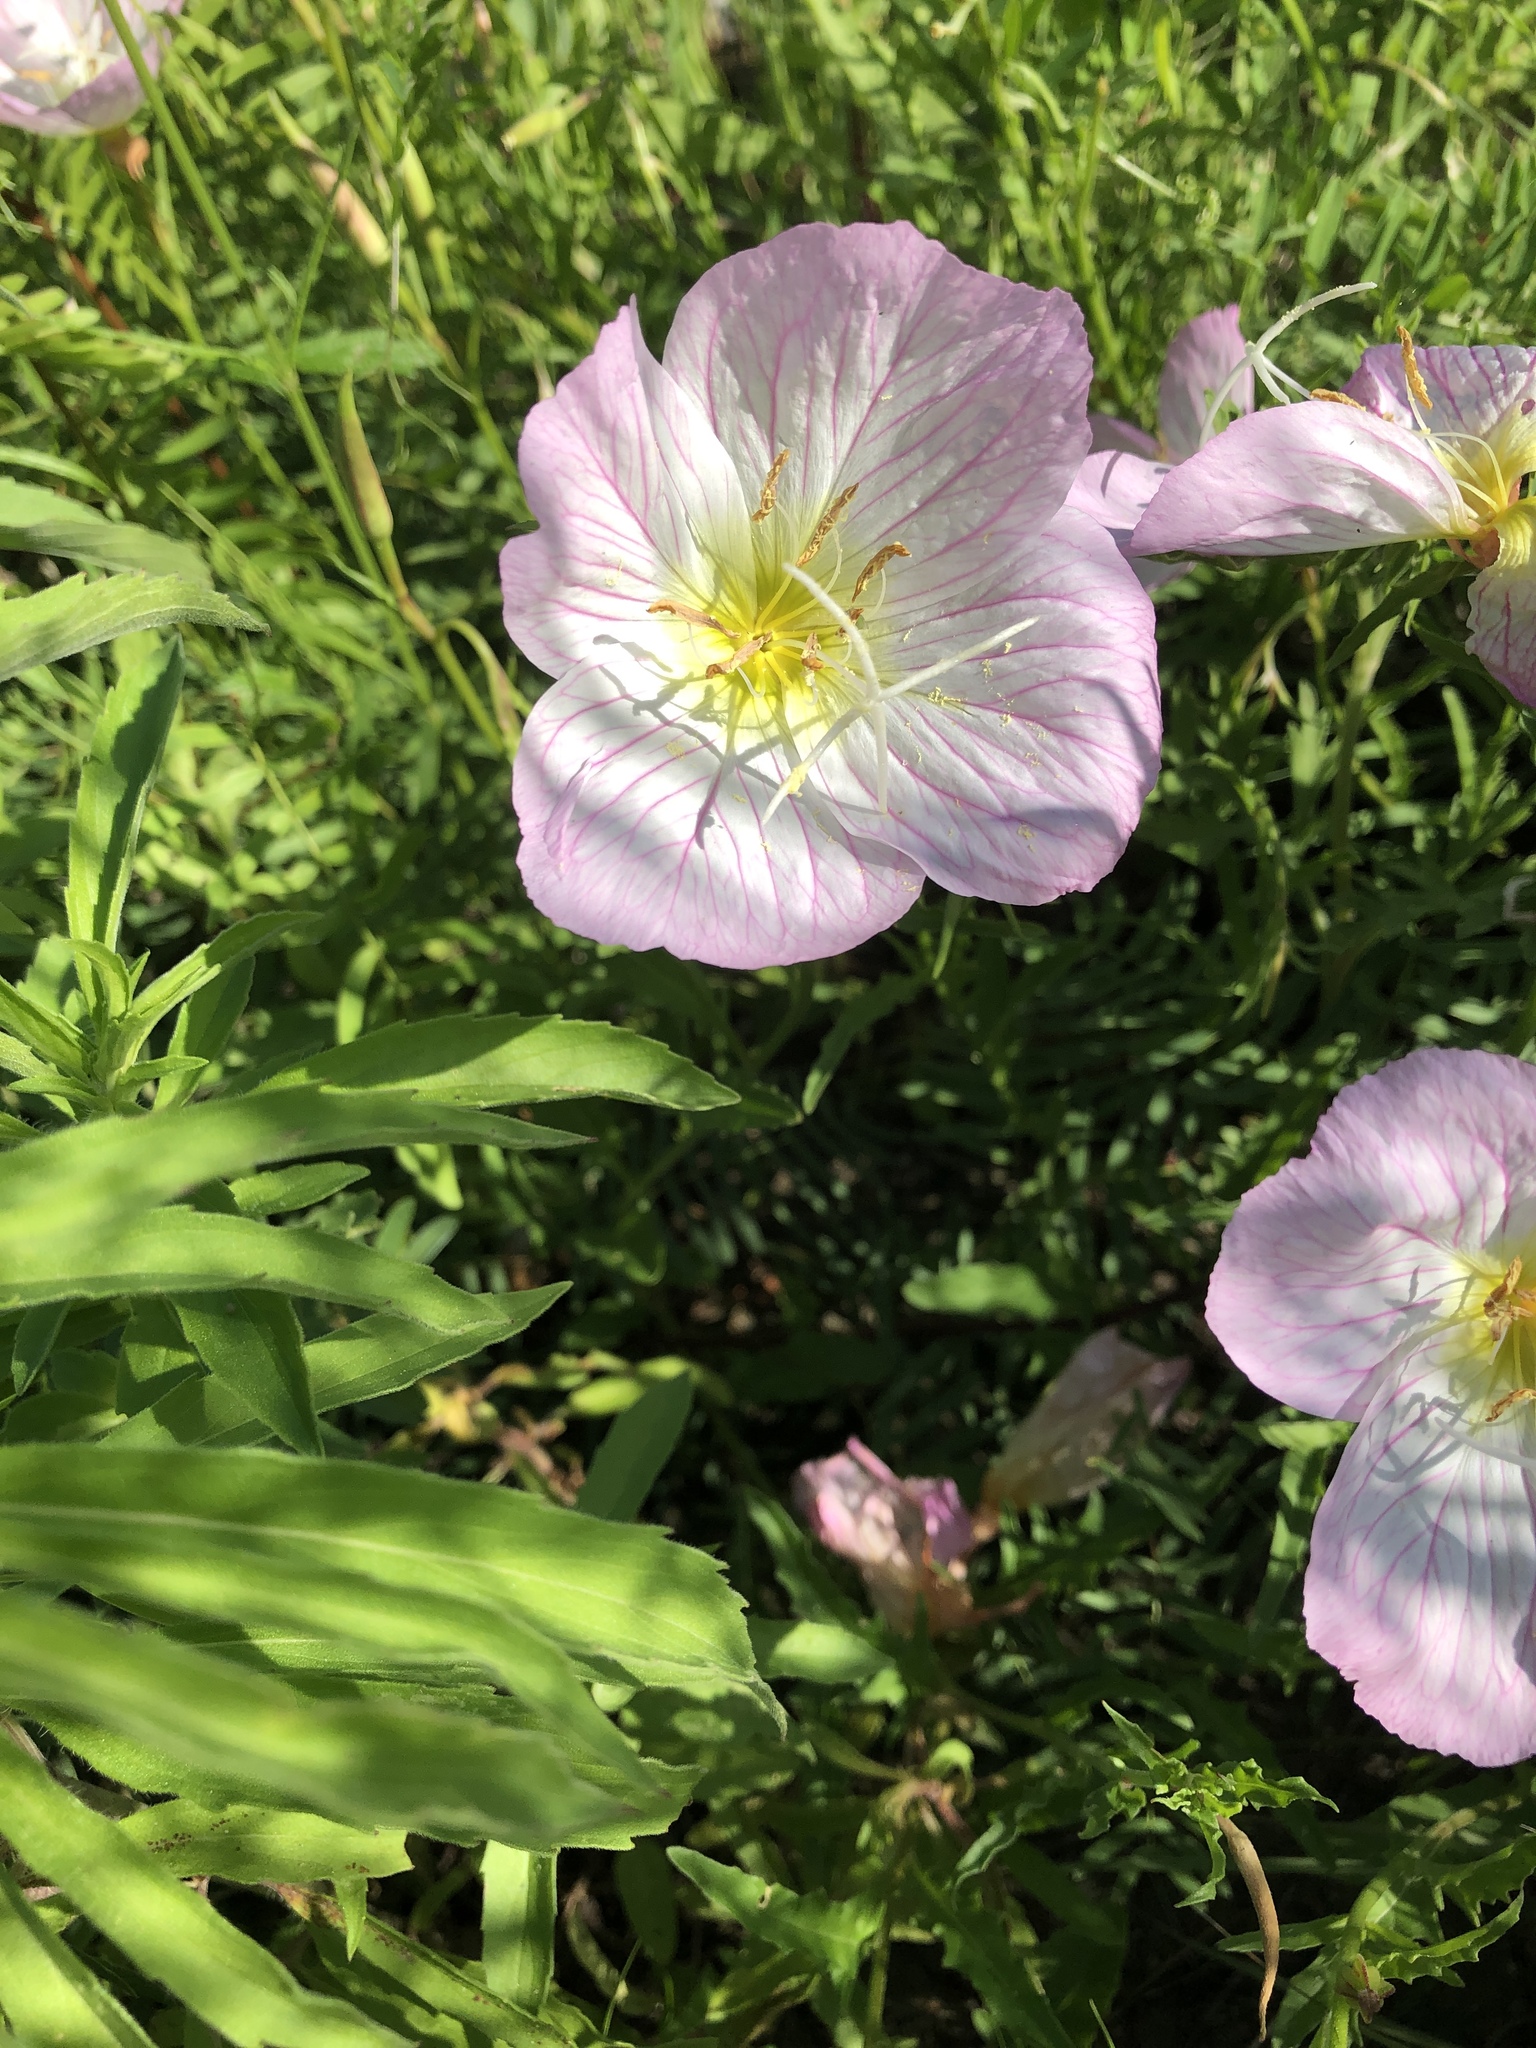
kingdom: Plantae
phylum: Tracheophyta
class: Magnoliopsida
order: Myrtales
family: Onagraceae
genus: Oenothera
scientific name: Oenothera speciosa
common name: White evening-primrose
